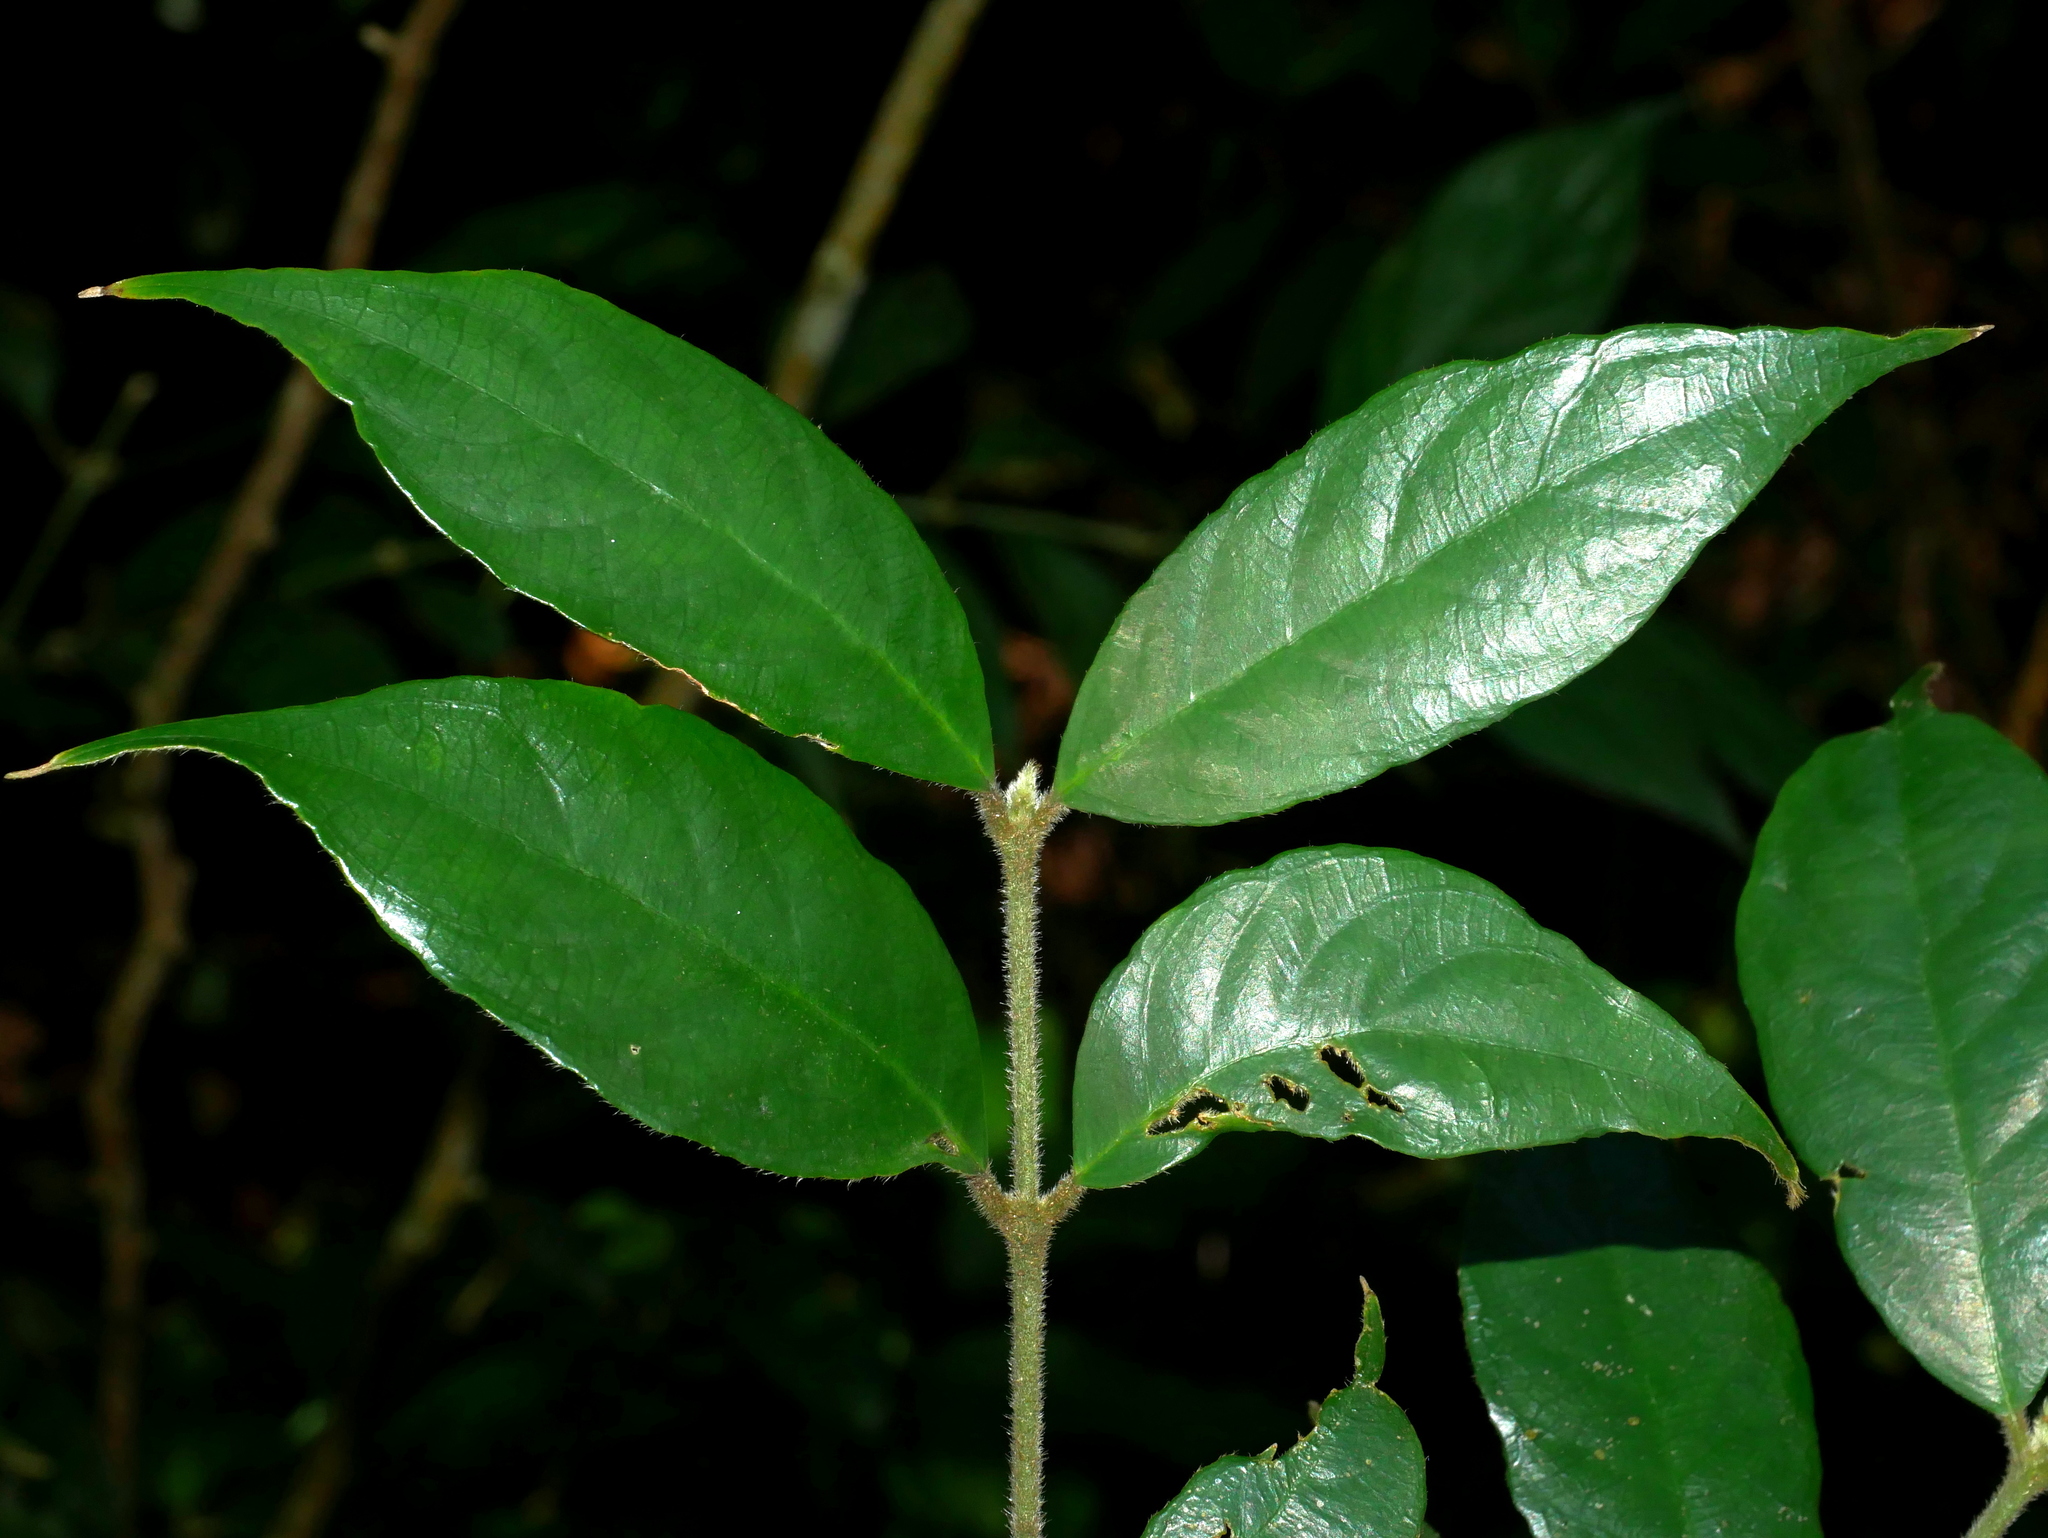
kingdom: Plantae
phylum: Tracheophyta
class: Magnoliopsida
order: Gentianales
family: Rubiaceae
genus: Lasianthus
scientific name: Lasianthus curtisii
